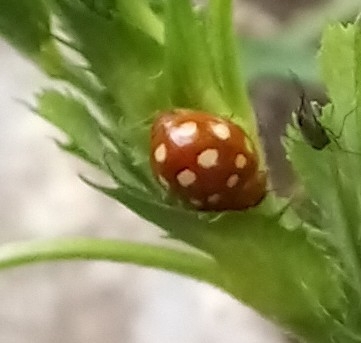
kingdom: Animalia
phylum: Arthropoda
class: Insecta
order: Coleoptera
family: Coccinellidae
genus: Calvia
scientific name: Calvia quatuordecimguttata
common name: Cream-spot ladybird
